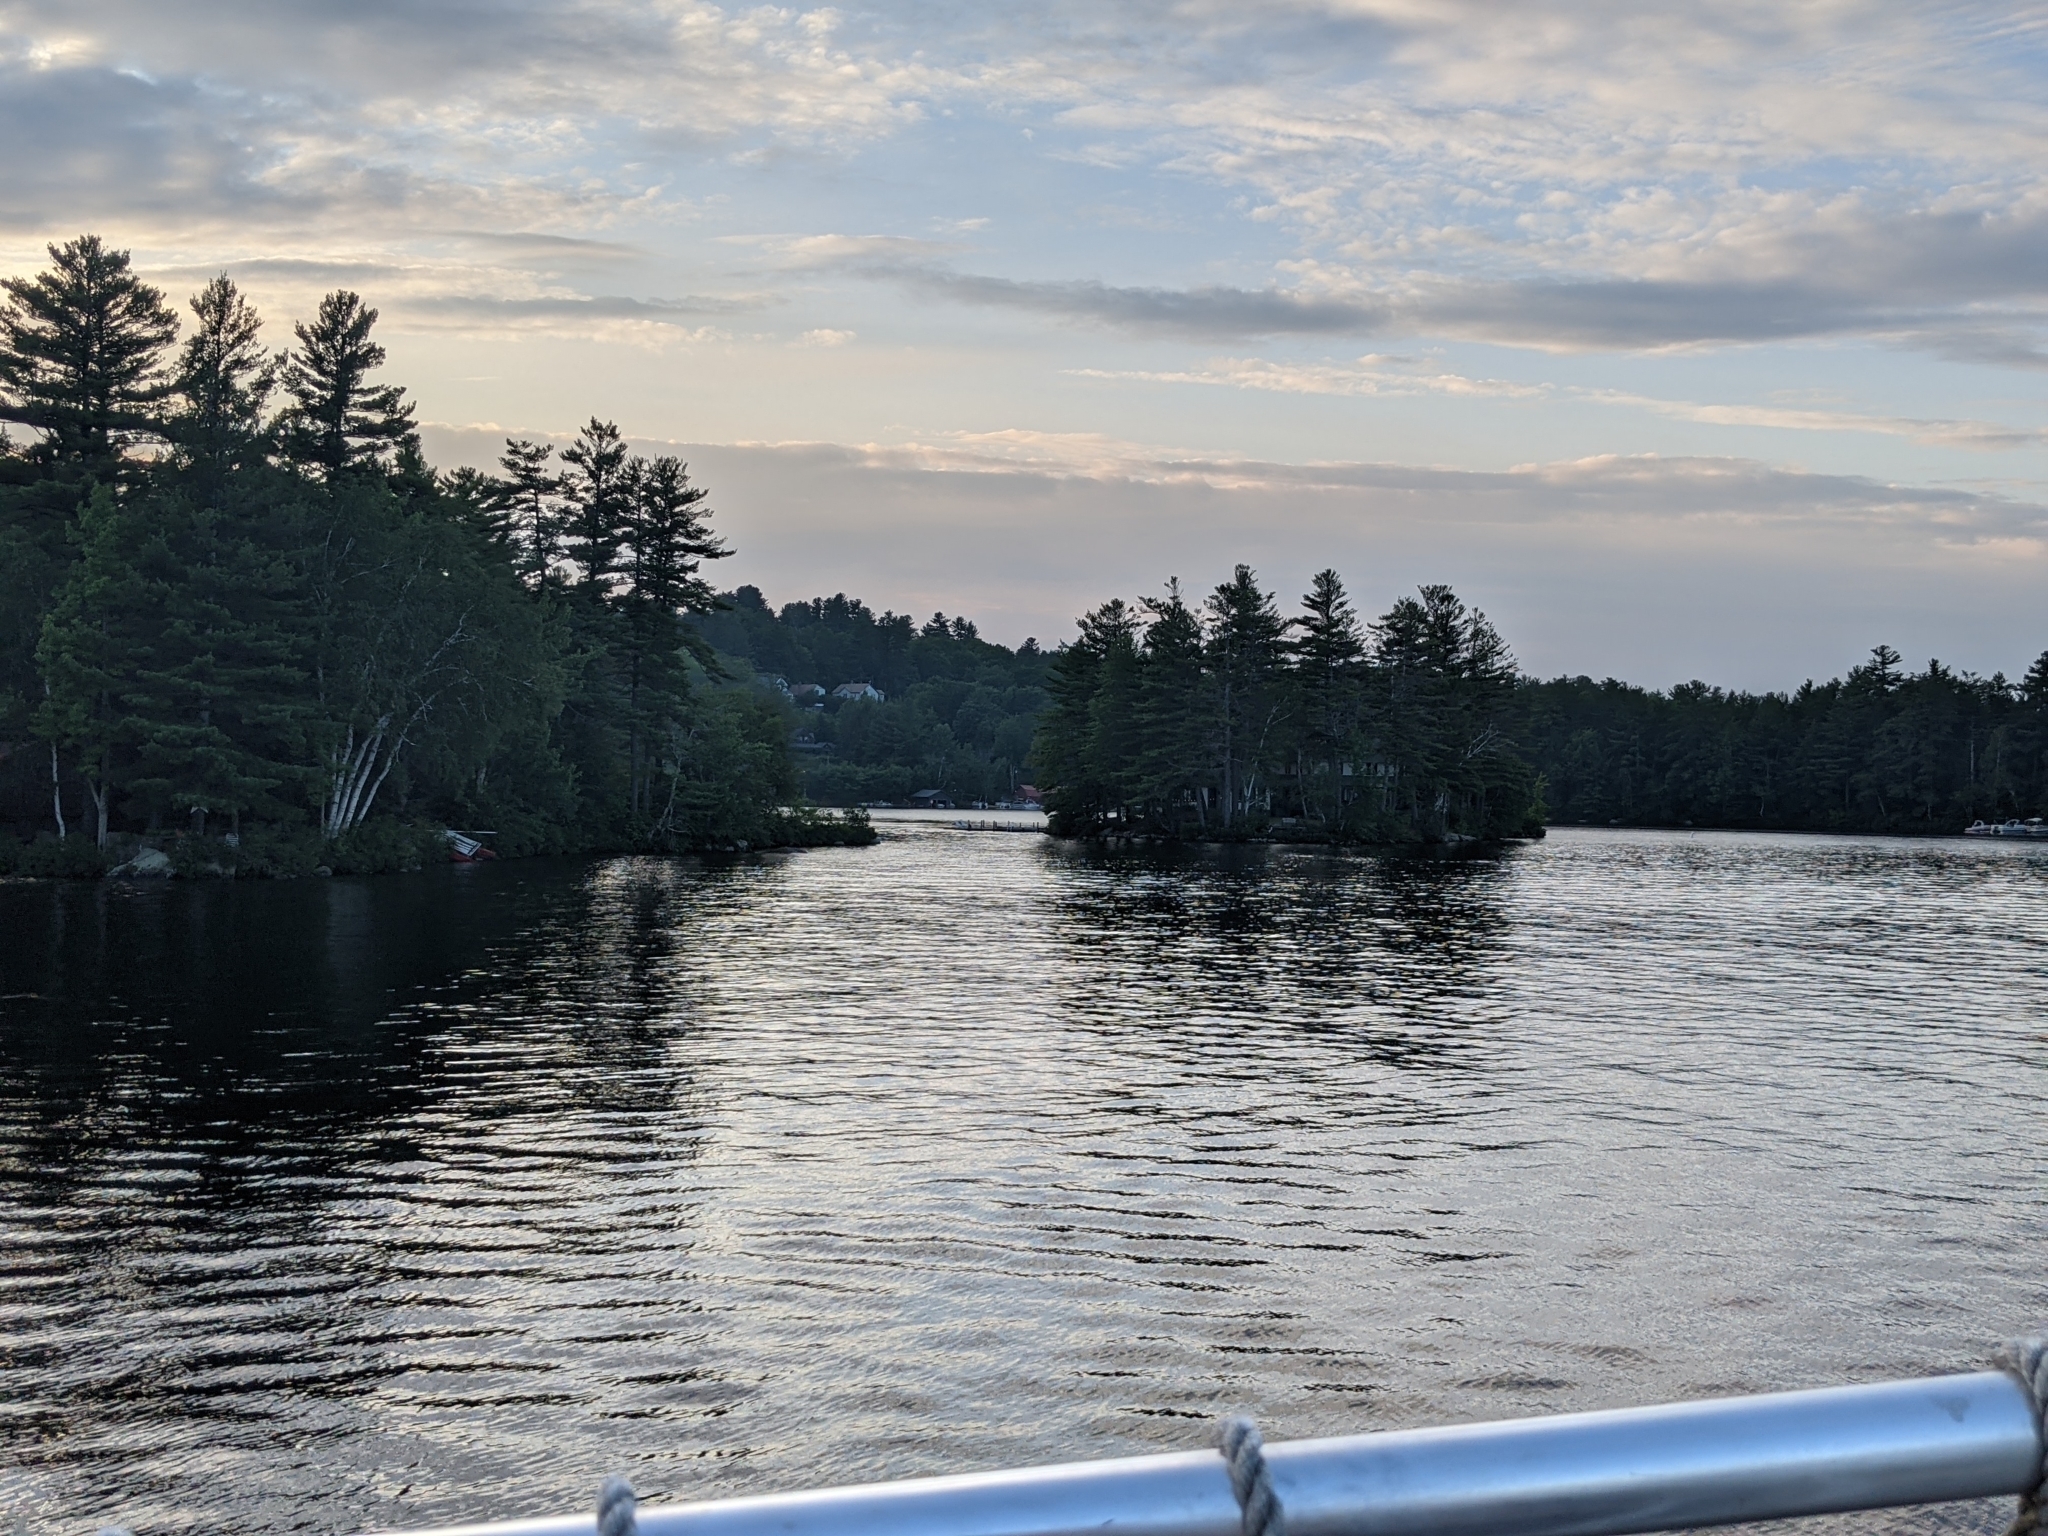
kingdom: Plantae
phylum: Tracheophyta
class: Pinopsida
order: Pinales
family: Pinaceae
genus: Pinus
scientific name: Pinus strobus
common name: Weymouth pine
